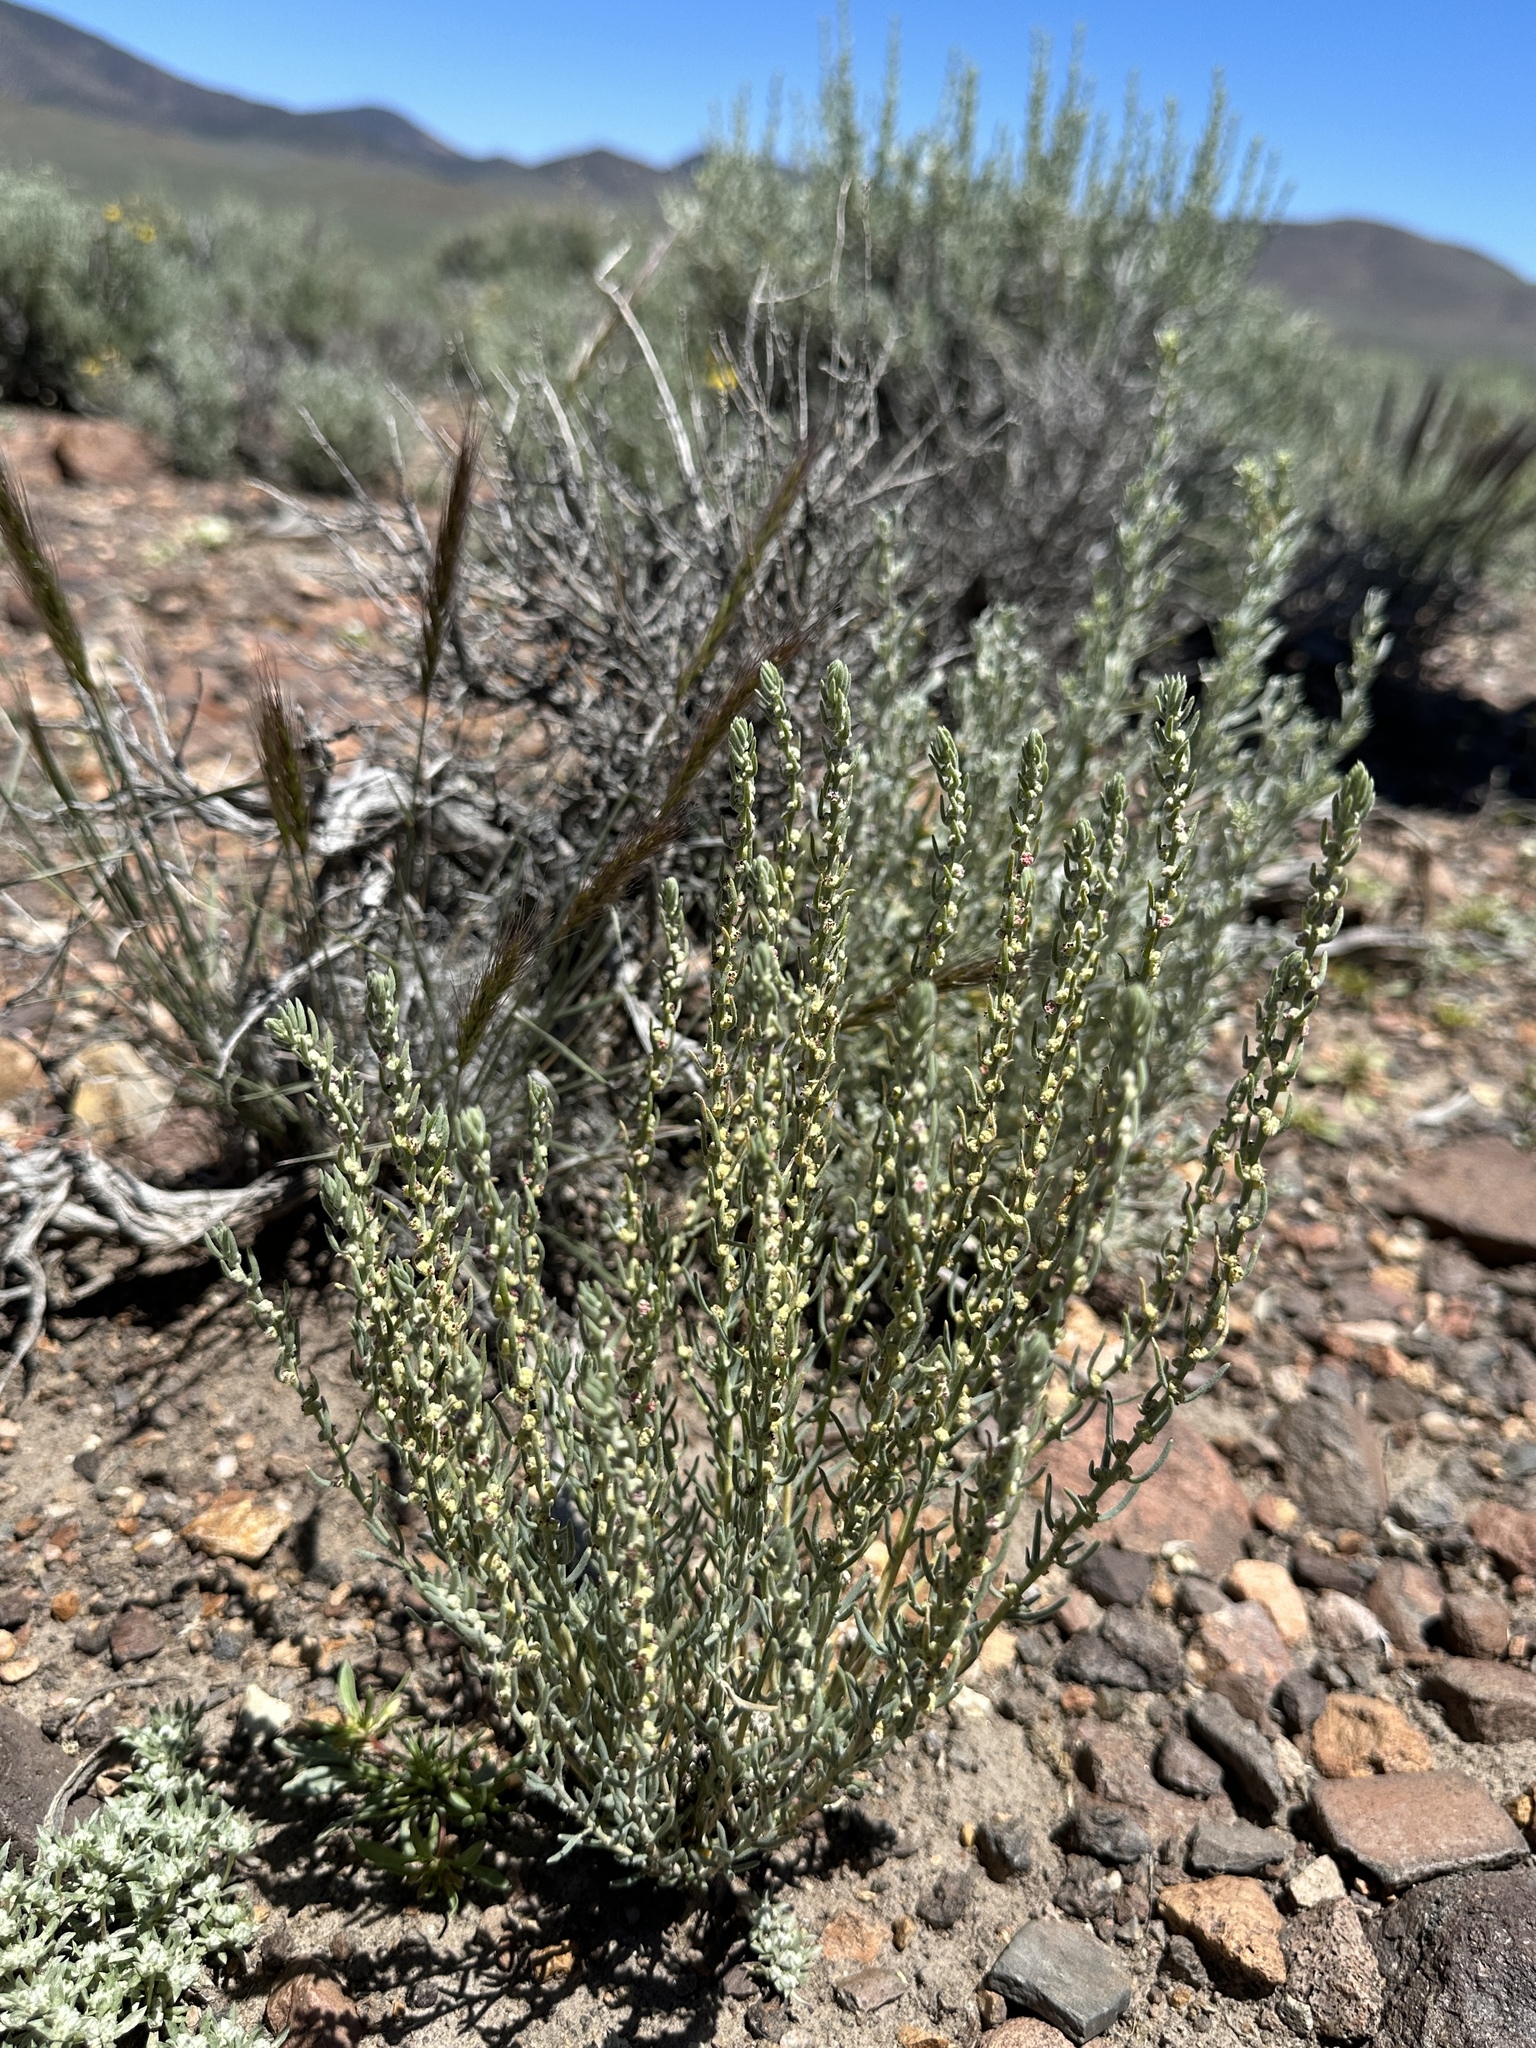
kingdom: Plantae
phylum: Tracheophyta
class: Magnoliopsida
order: Caryophyllales
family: Amaranthaceae
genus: Neokochia
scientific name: Neokochia americana
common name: Perennial summer-cypress
